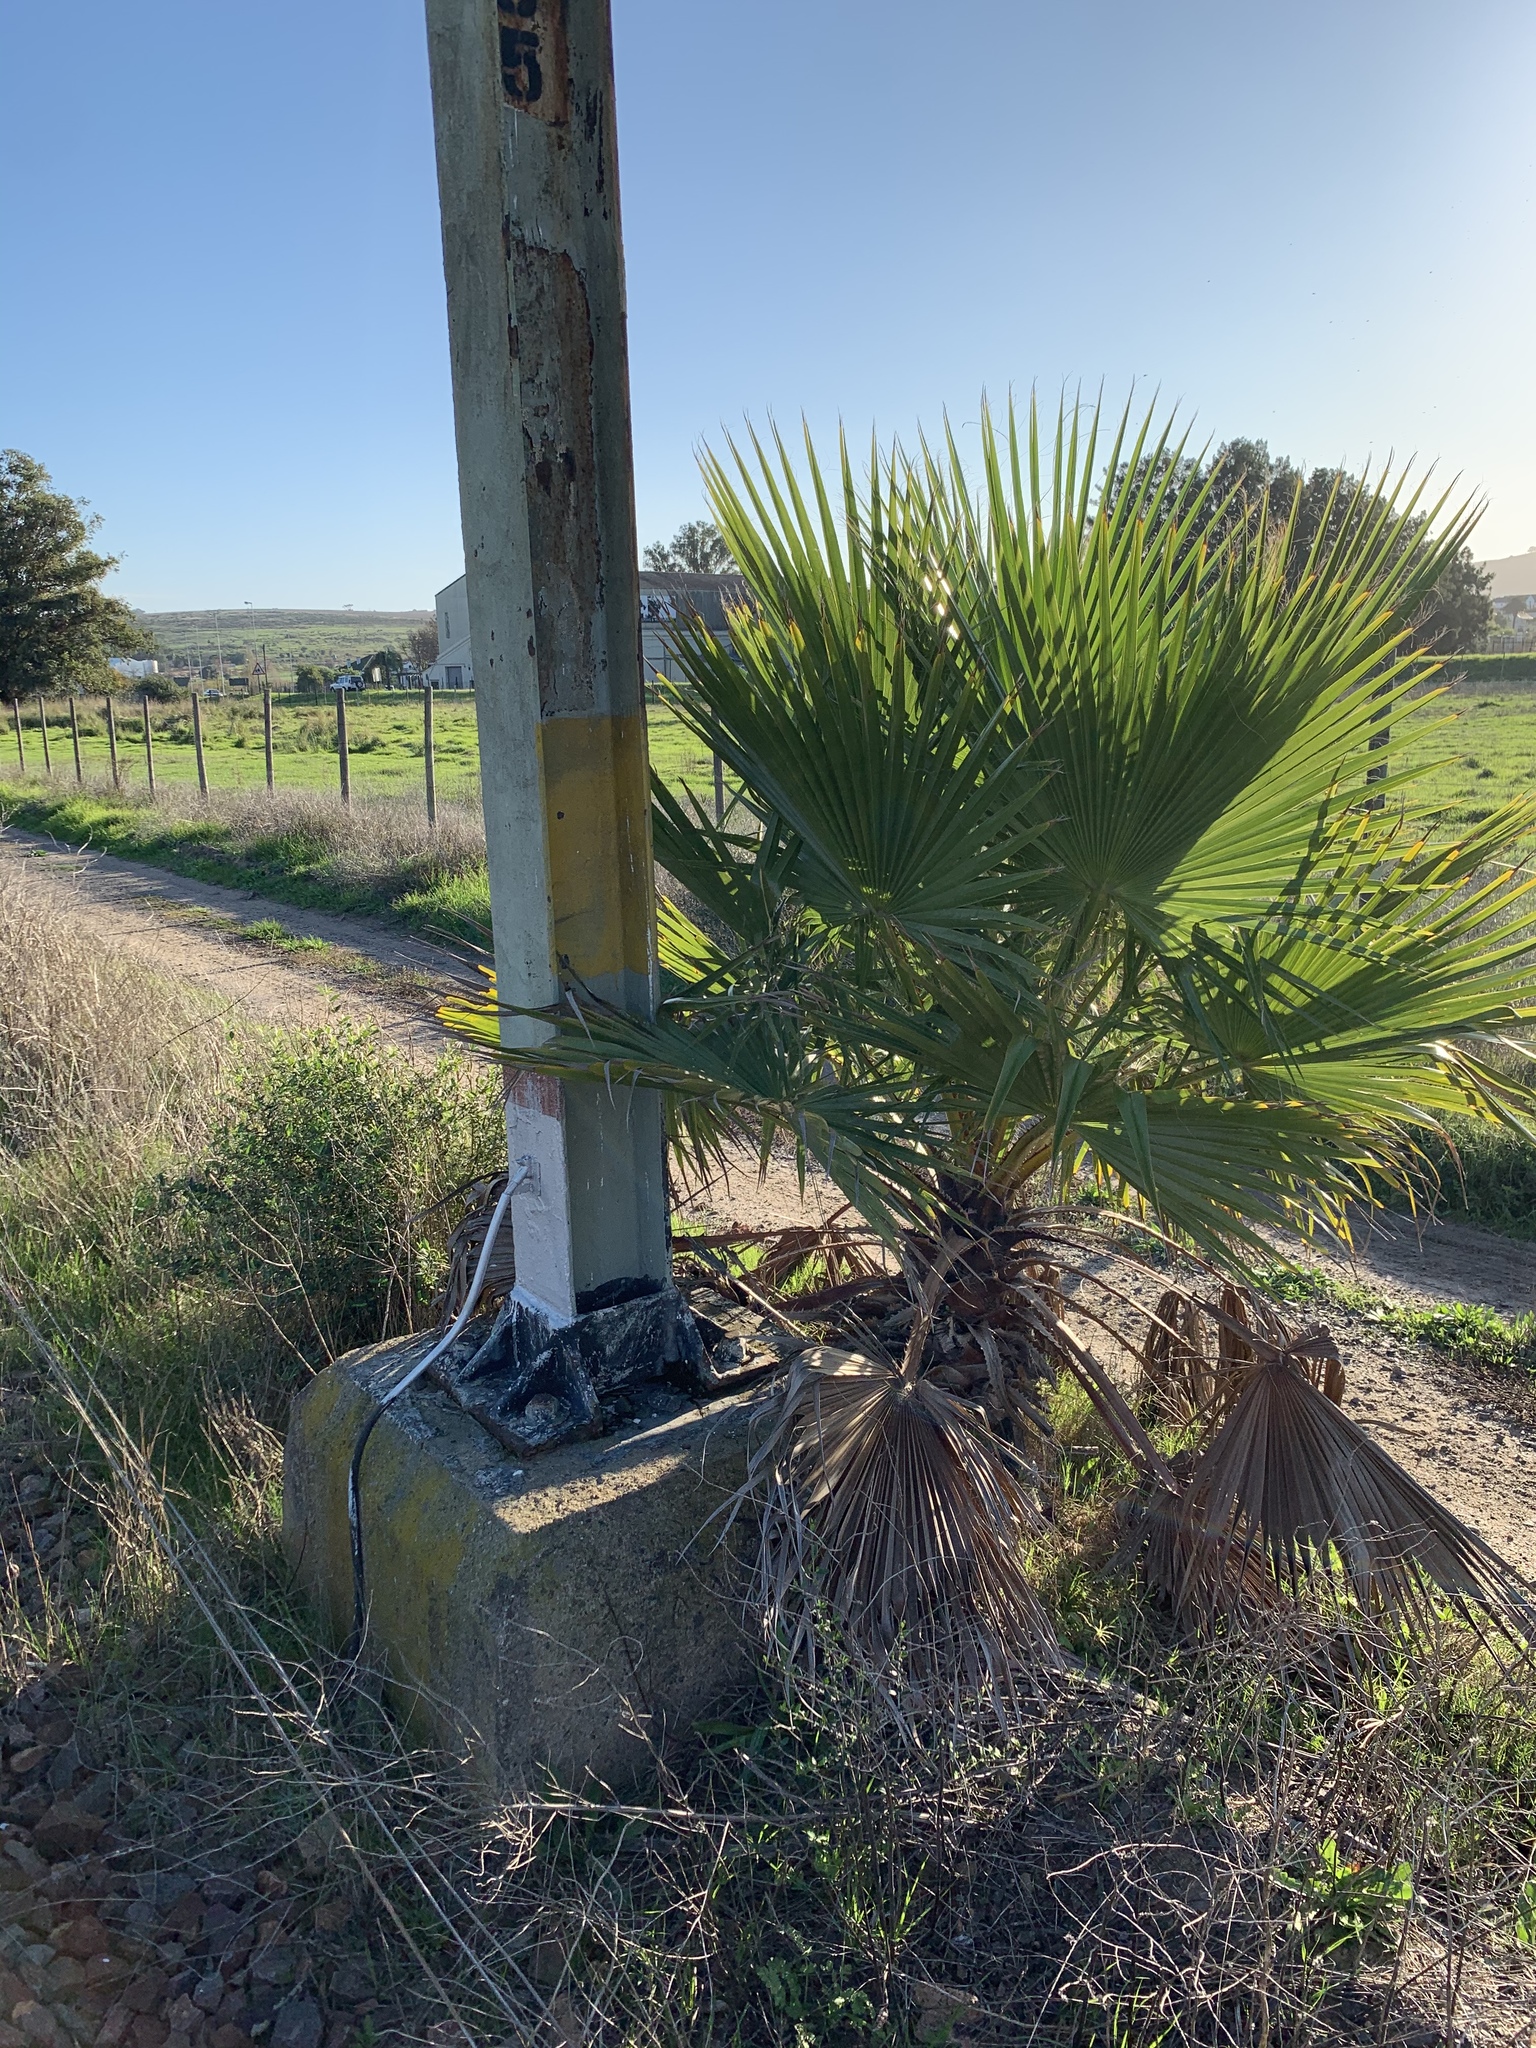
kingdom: Plantae
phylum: Tracheophyta
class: Liliopsida
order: Arecales
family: Arecaceae
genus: Washingtonia
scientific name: Washingtonia robusta
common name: Mexican fan palm
